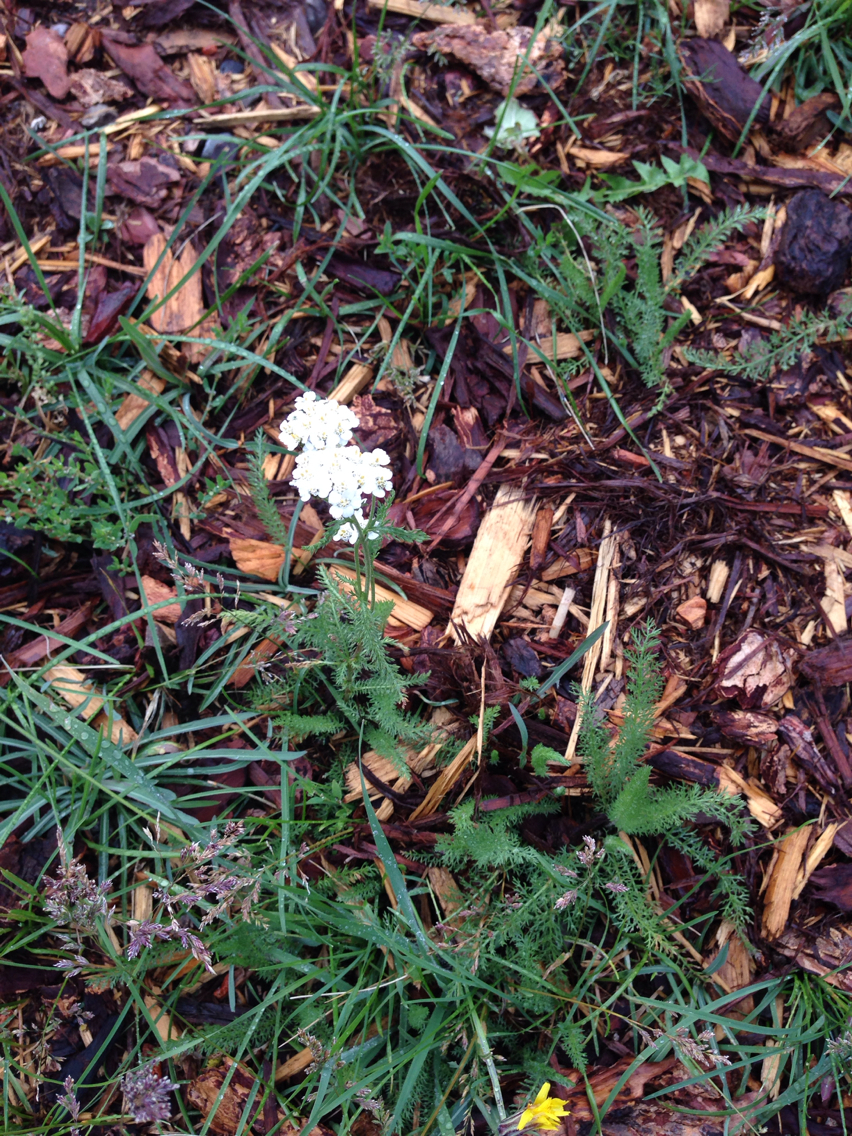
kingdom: Plantae
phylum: Tracheophyta
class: Magnoliopsida
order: Asterales
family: Asteraceae
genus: Achillea
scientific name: Achillea millefolium
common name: Yarrow
